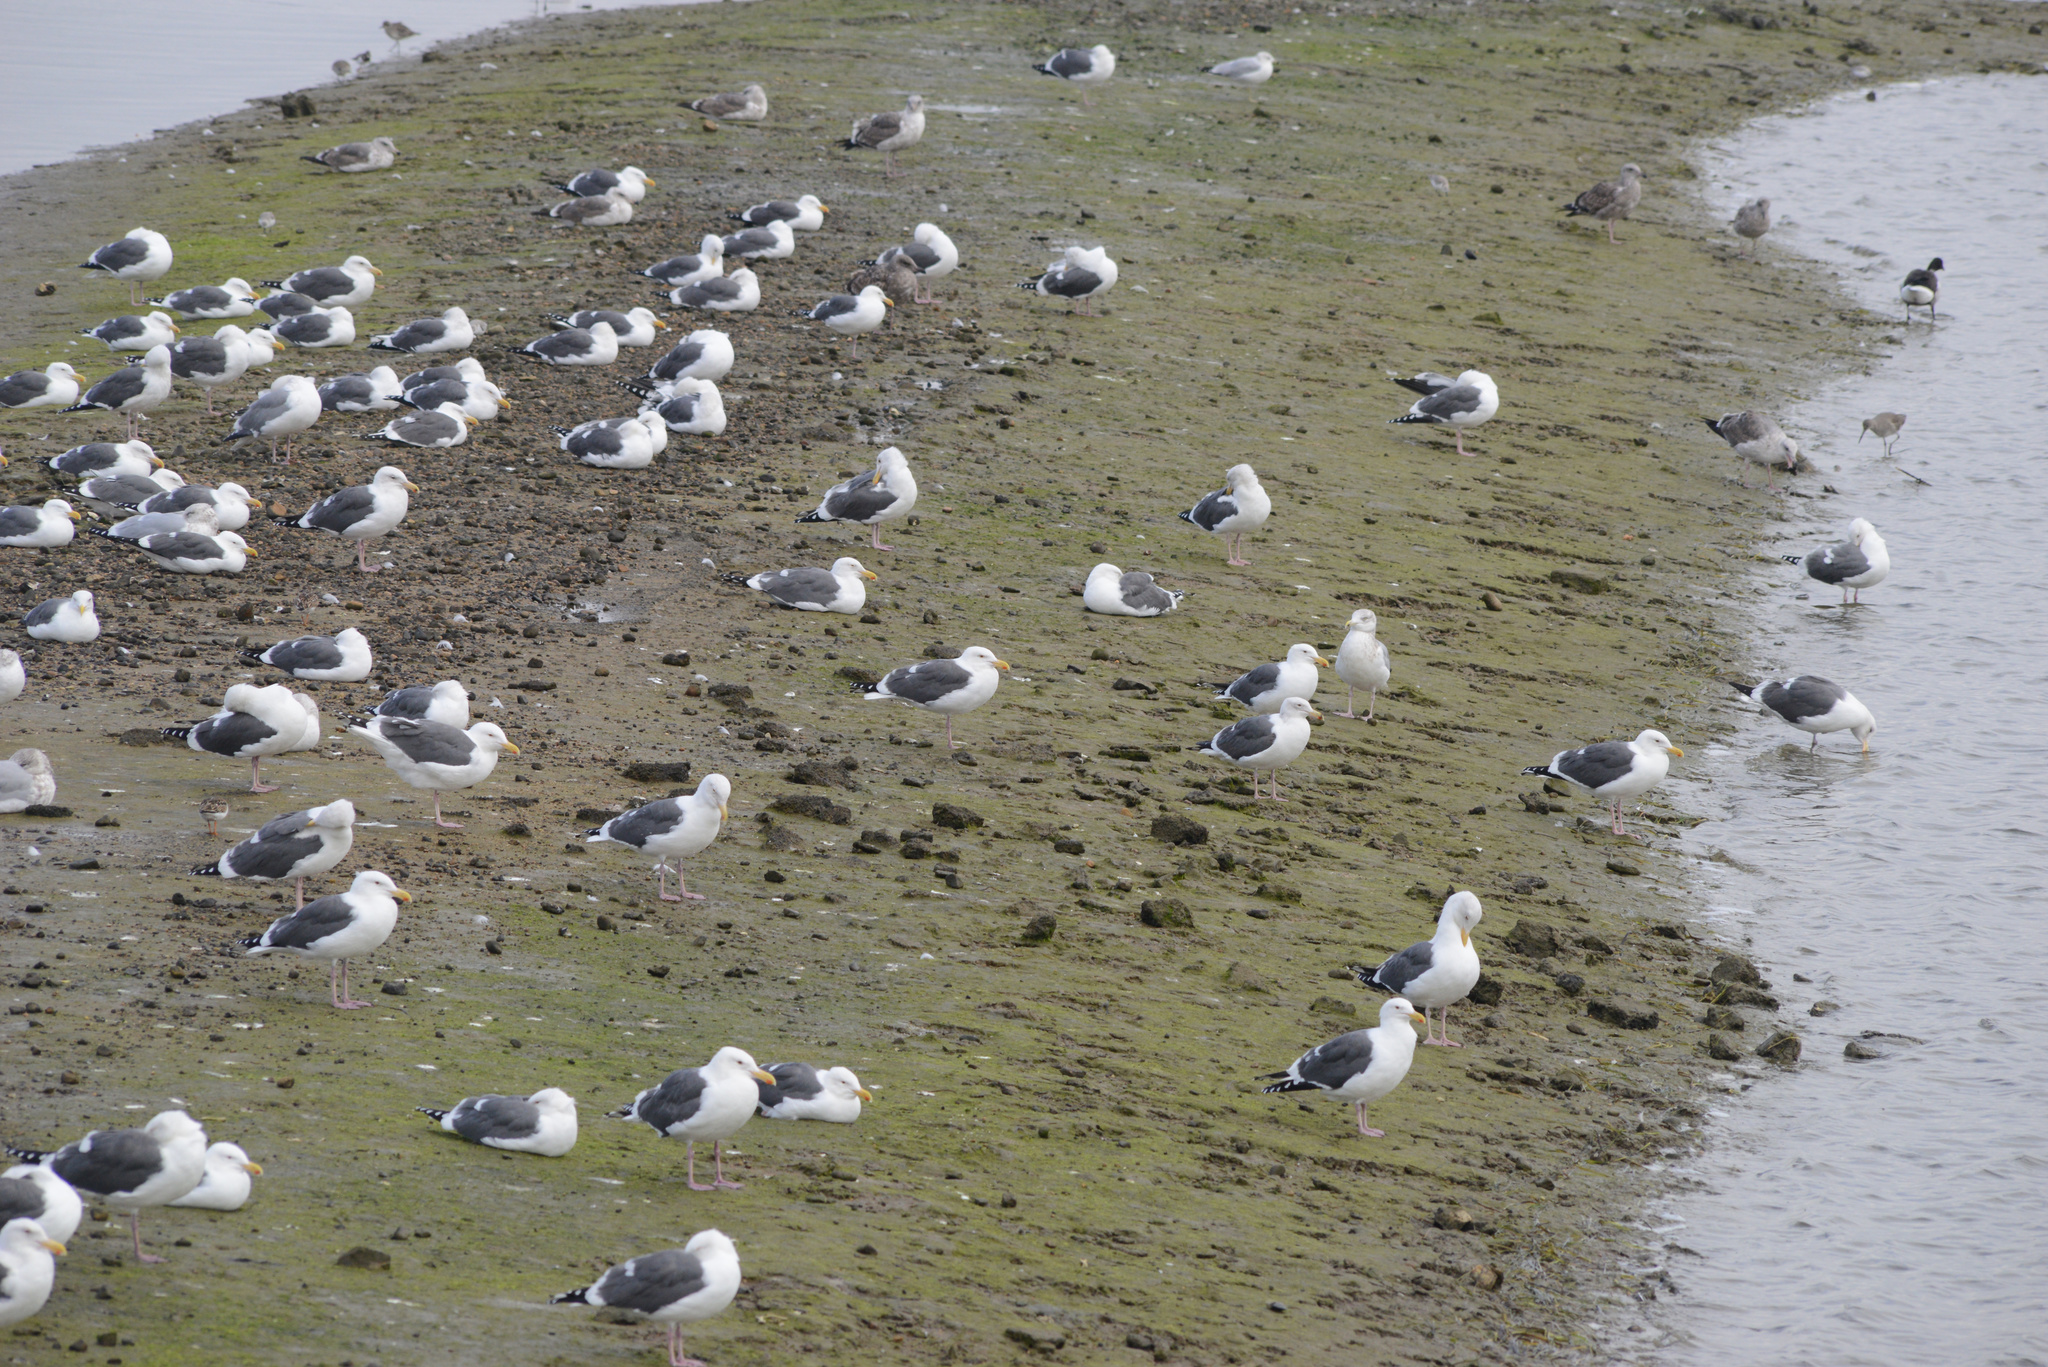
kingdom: Animalia
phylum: Chordata
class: Aves
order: Charadriiformes
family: Laridae
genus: Larus
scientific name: Larus occidentalis
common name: Western gull
